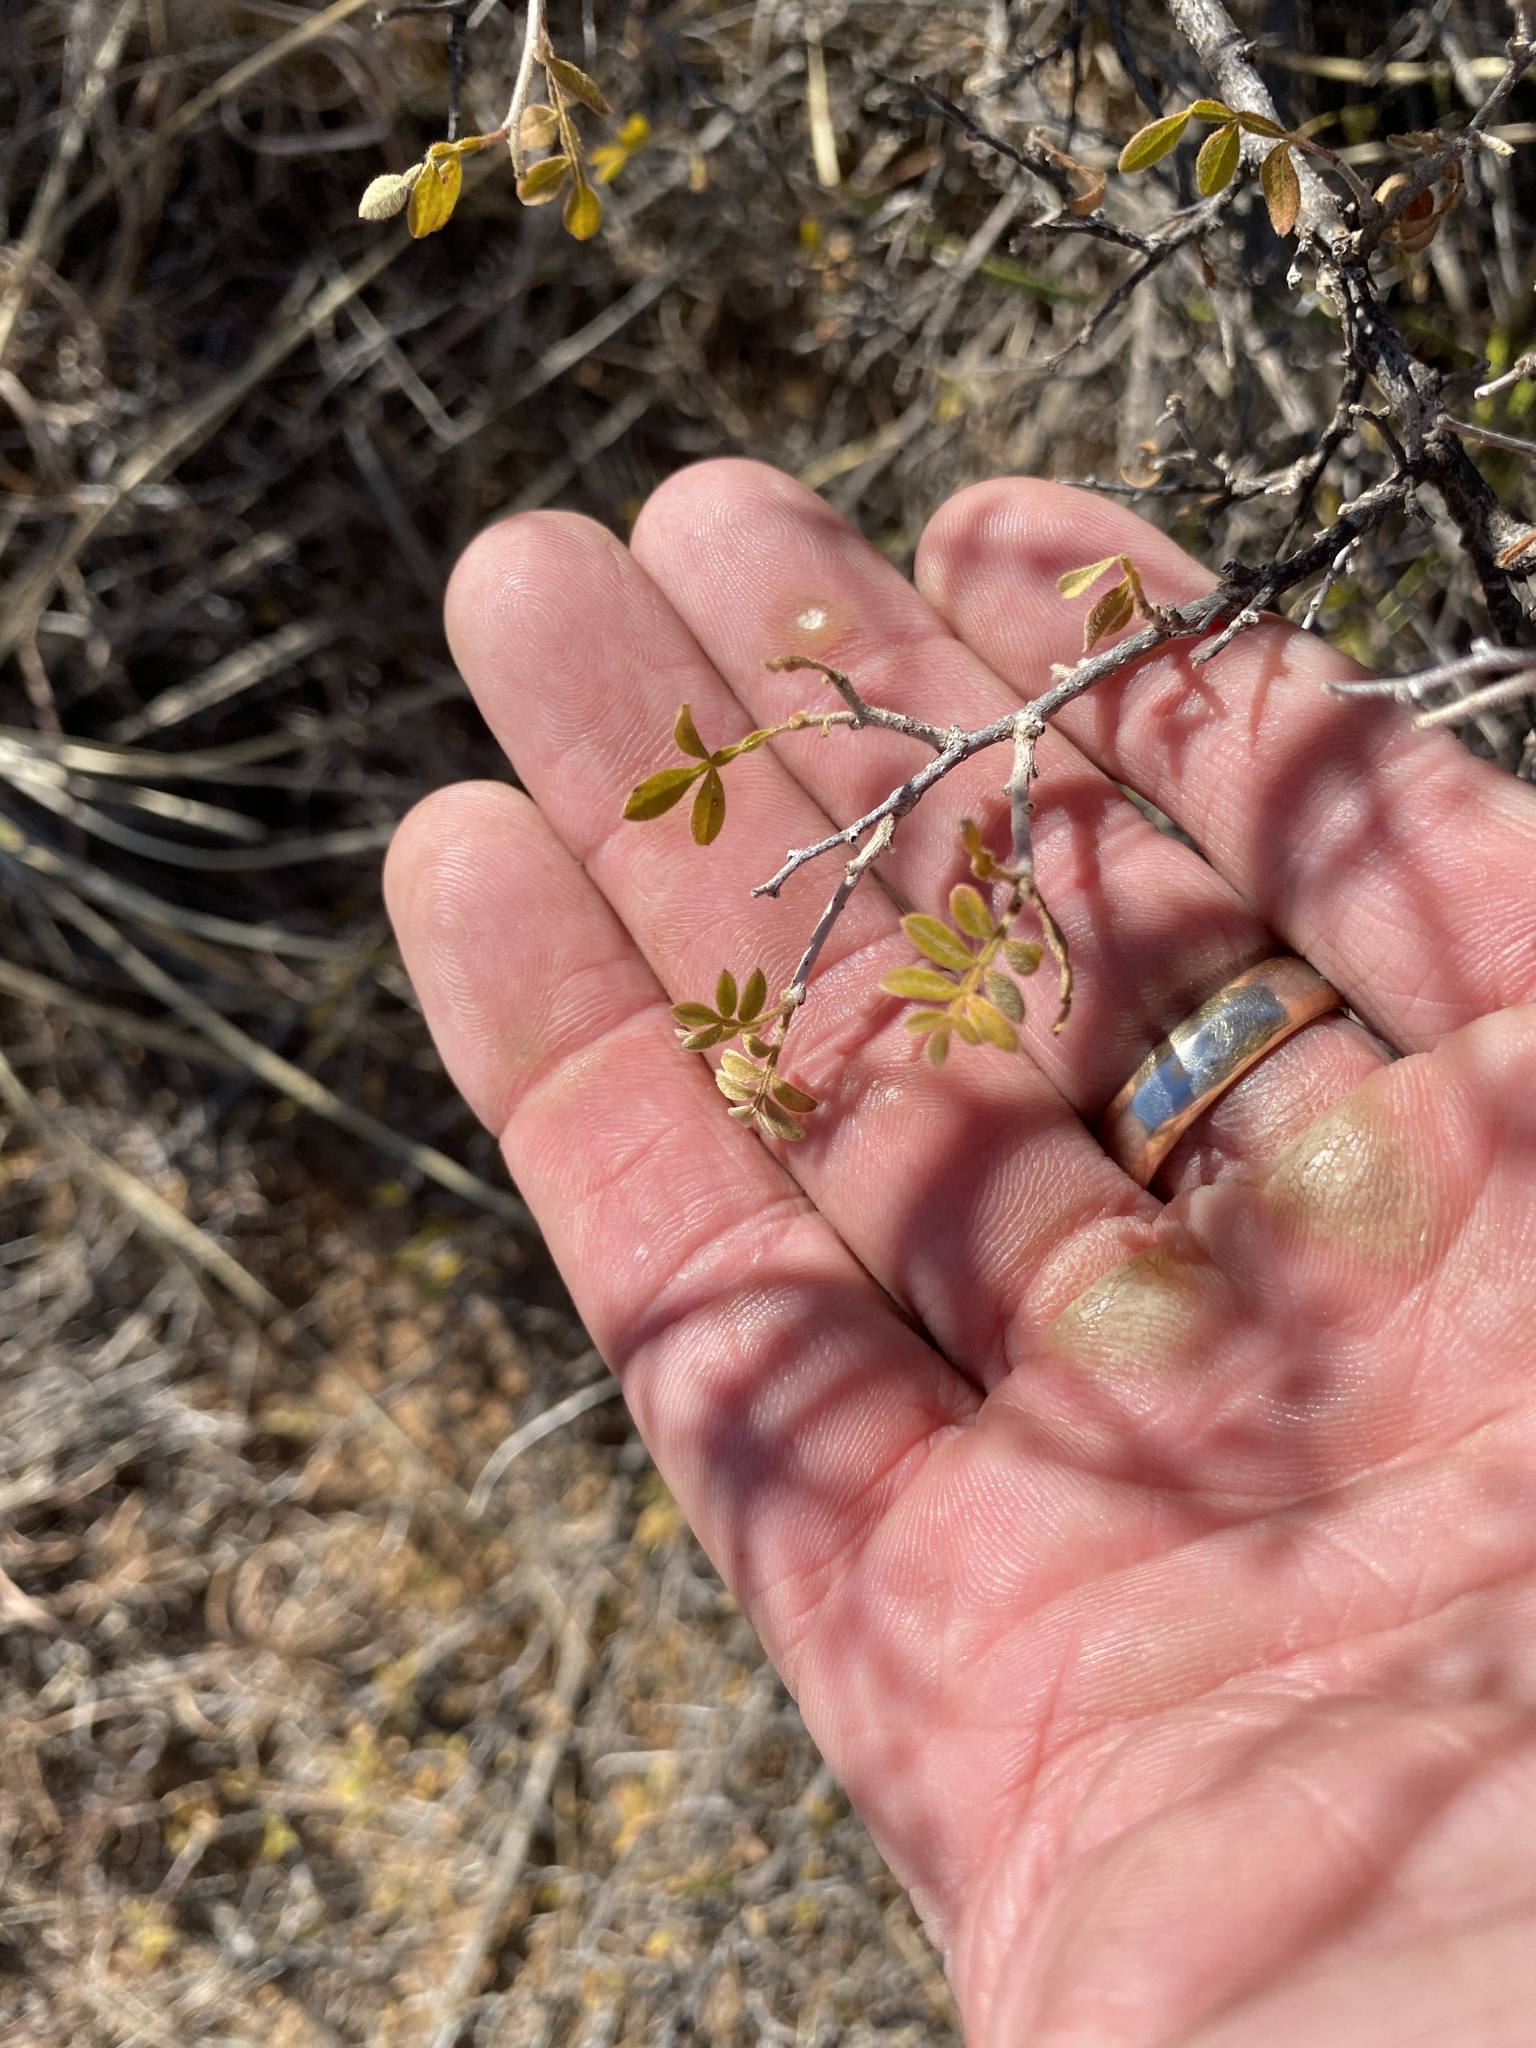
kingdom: Plantae
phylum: Tracheophyta
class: Magnoliopsida
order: Sapindales
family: Anacardiaceae
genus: Rhus
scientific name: Rhus microphylla
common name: Desert sumac
